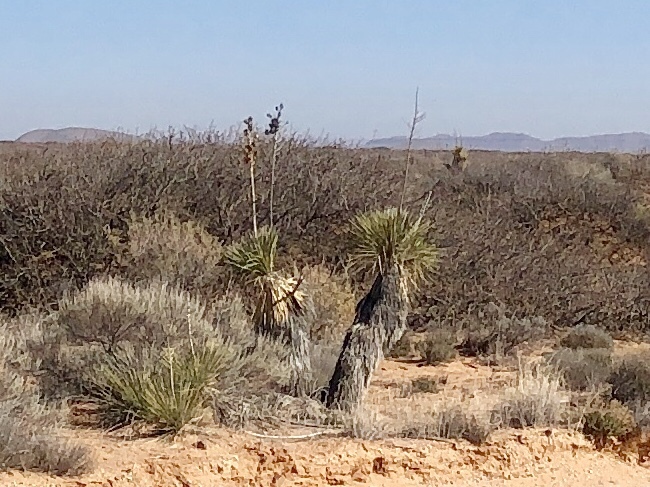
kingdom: Plantae
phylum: Tracheophyta
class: Liliopsida
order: Asparagales
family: Asparagaceae
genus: Yucca
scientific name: Yucca elata
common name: Palmella
